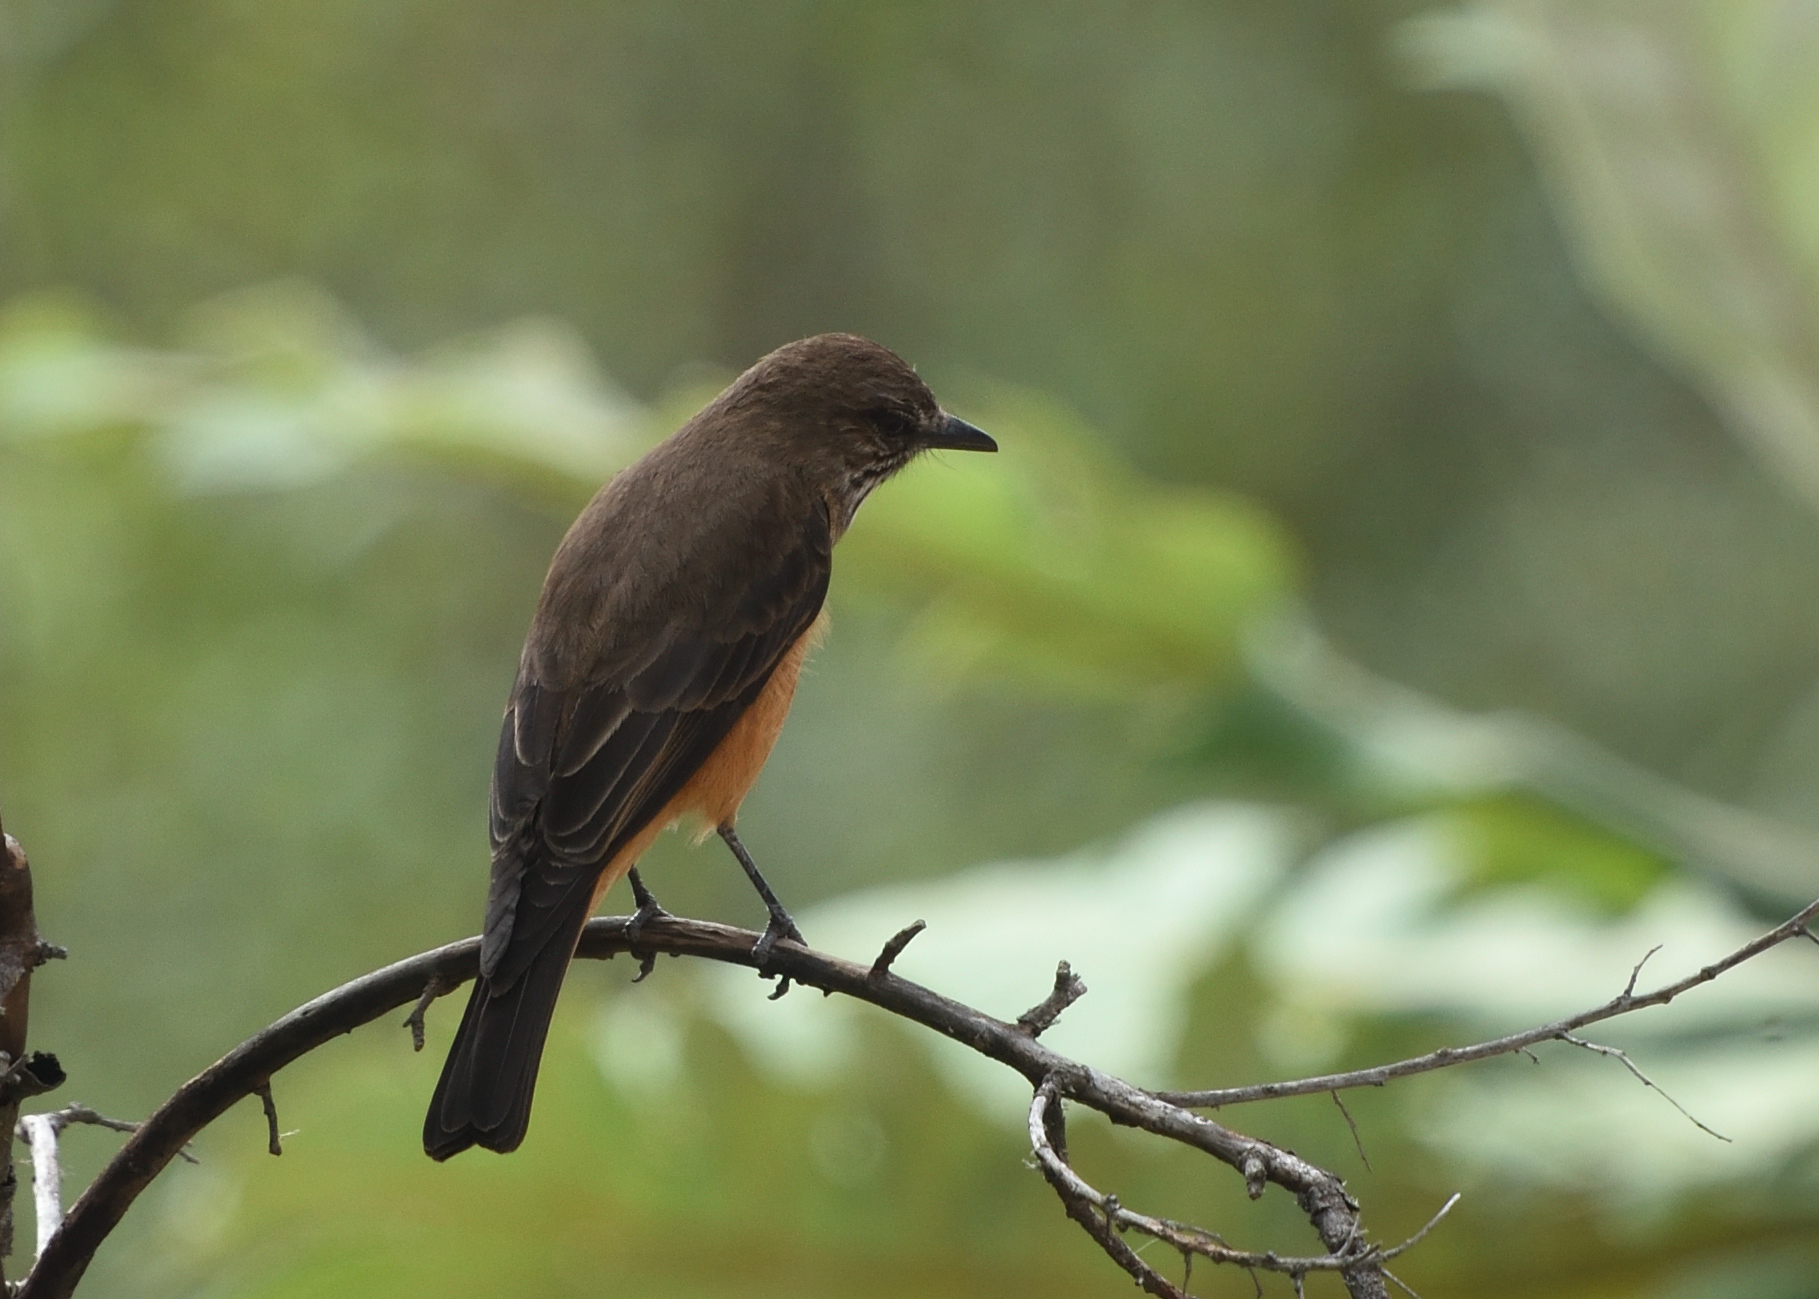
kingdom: Animalia
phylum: Chordata
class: Aves
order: Passeriformes
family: Tyrannidae
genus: Myiotheretes
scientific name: Myiotheretes striaticollis
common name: Streak-throated bush tyrant
